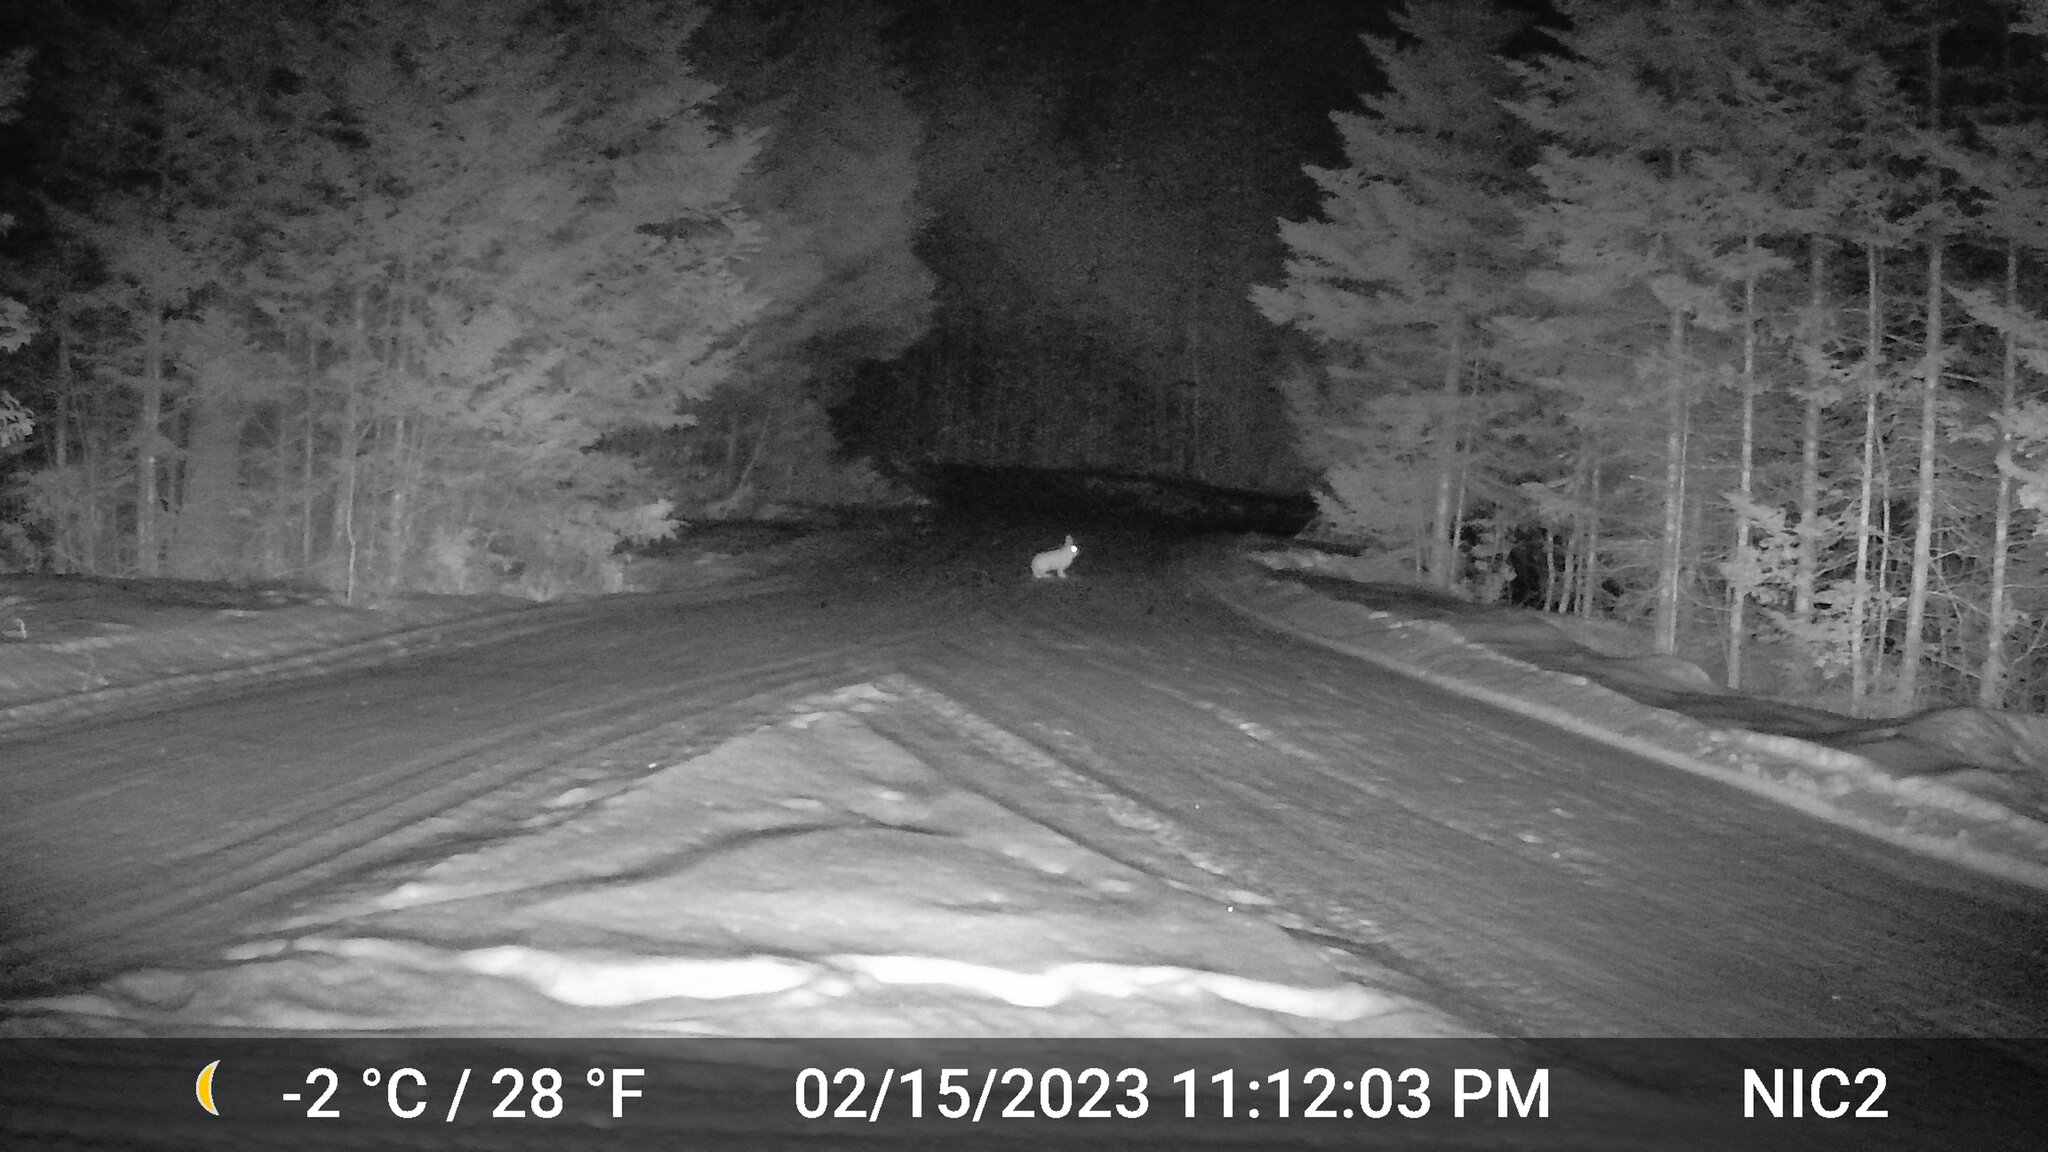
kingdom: Animalia
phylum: Chordata
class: Mammalia
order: Lagomorpha
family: Leporidae
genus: Lepus
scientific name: Lepus americanus
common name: Snowshoe hare
